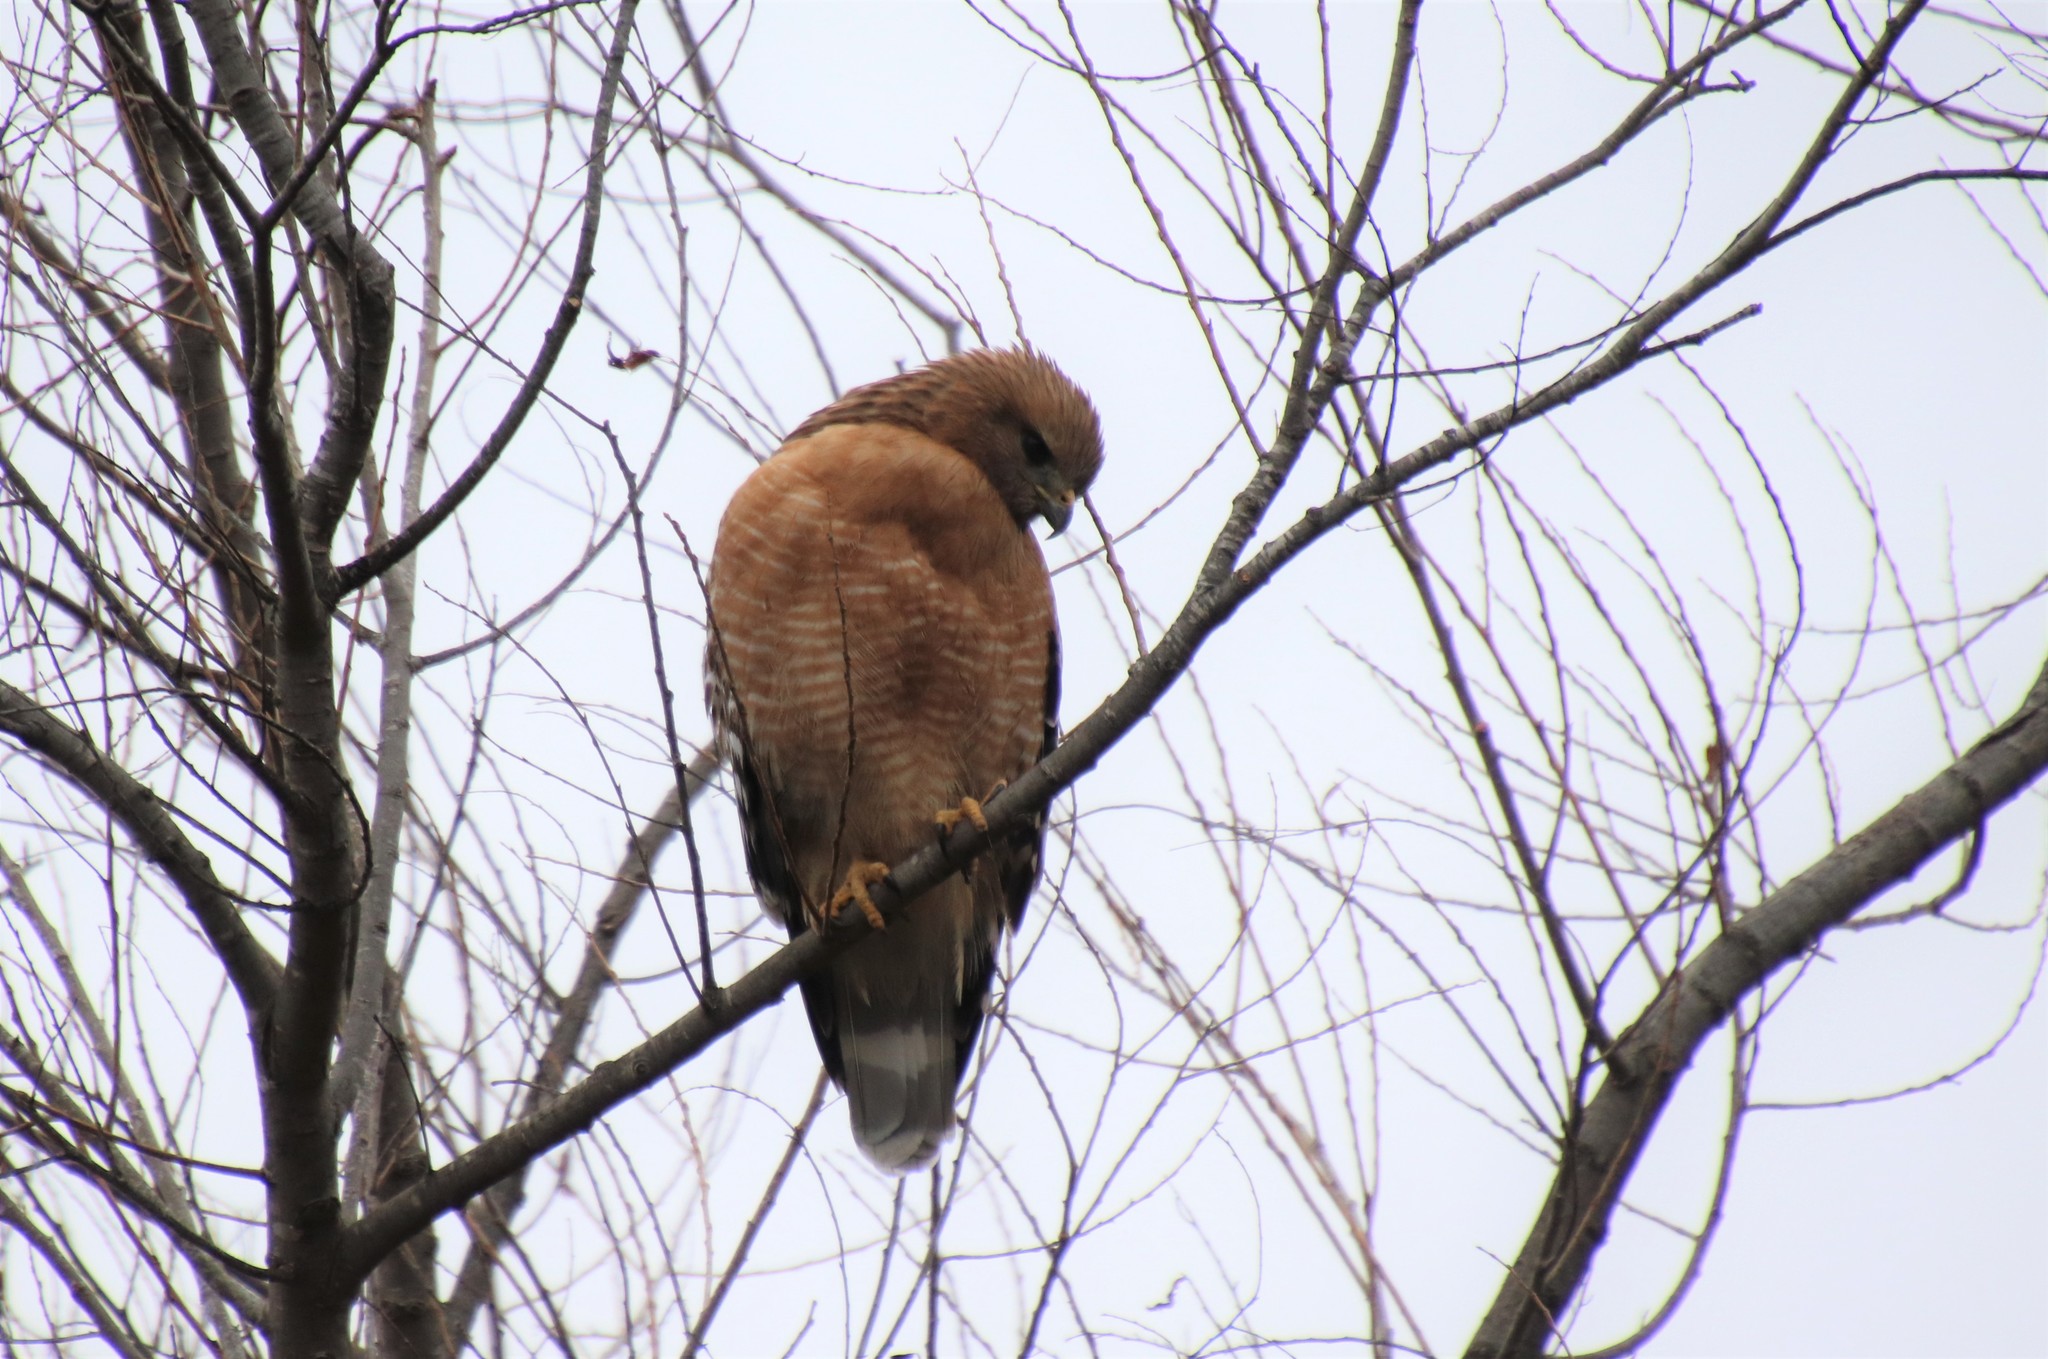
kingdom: Animalia
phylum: Chordata
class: Aves
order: Accipitriformes
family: Accipitridae
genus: Buteo
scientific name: Buteo lineatus
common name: Red-shouldered hawk
